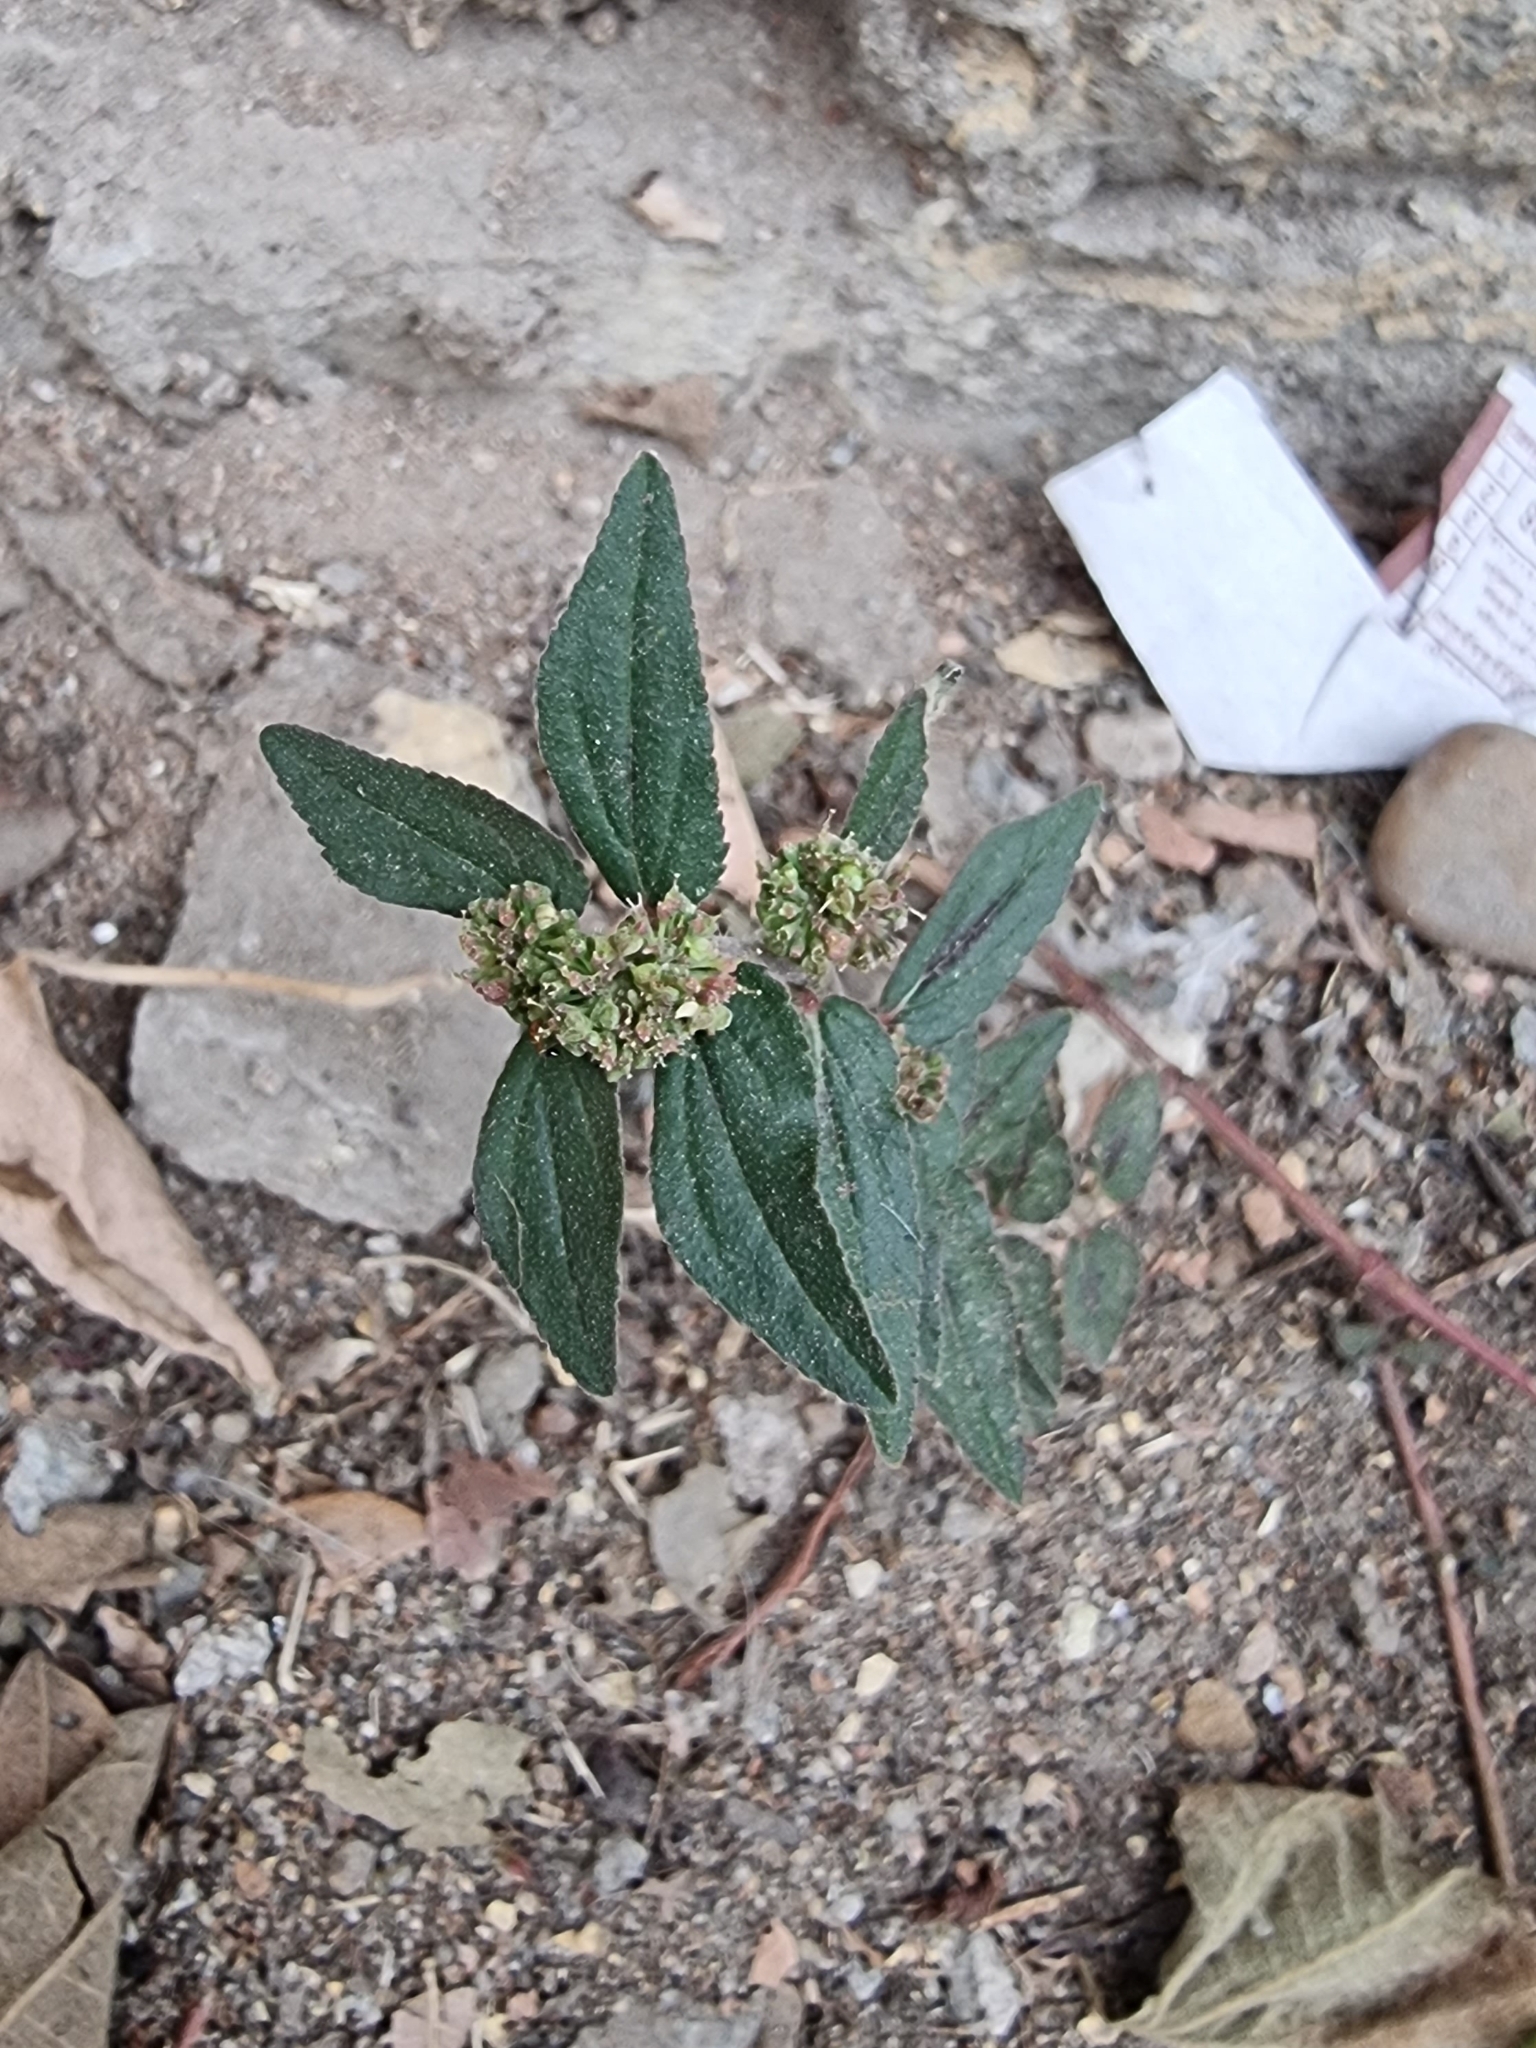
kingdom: Plantae
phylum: Tracheophyta
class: Magnoliopsida
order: Malpighiales
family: Euphorbiaceae
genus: Euphorbia
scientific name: Euphorbia hirta
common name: Pillpod sandmat
